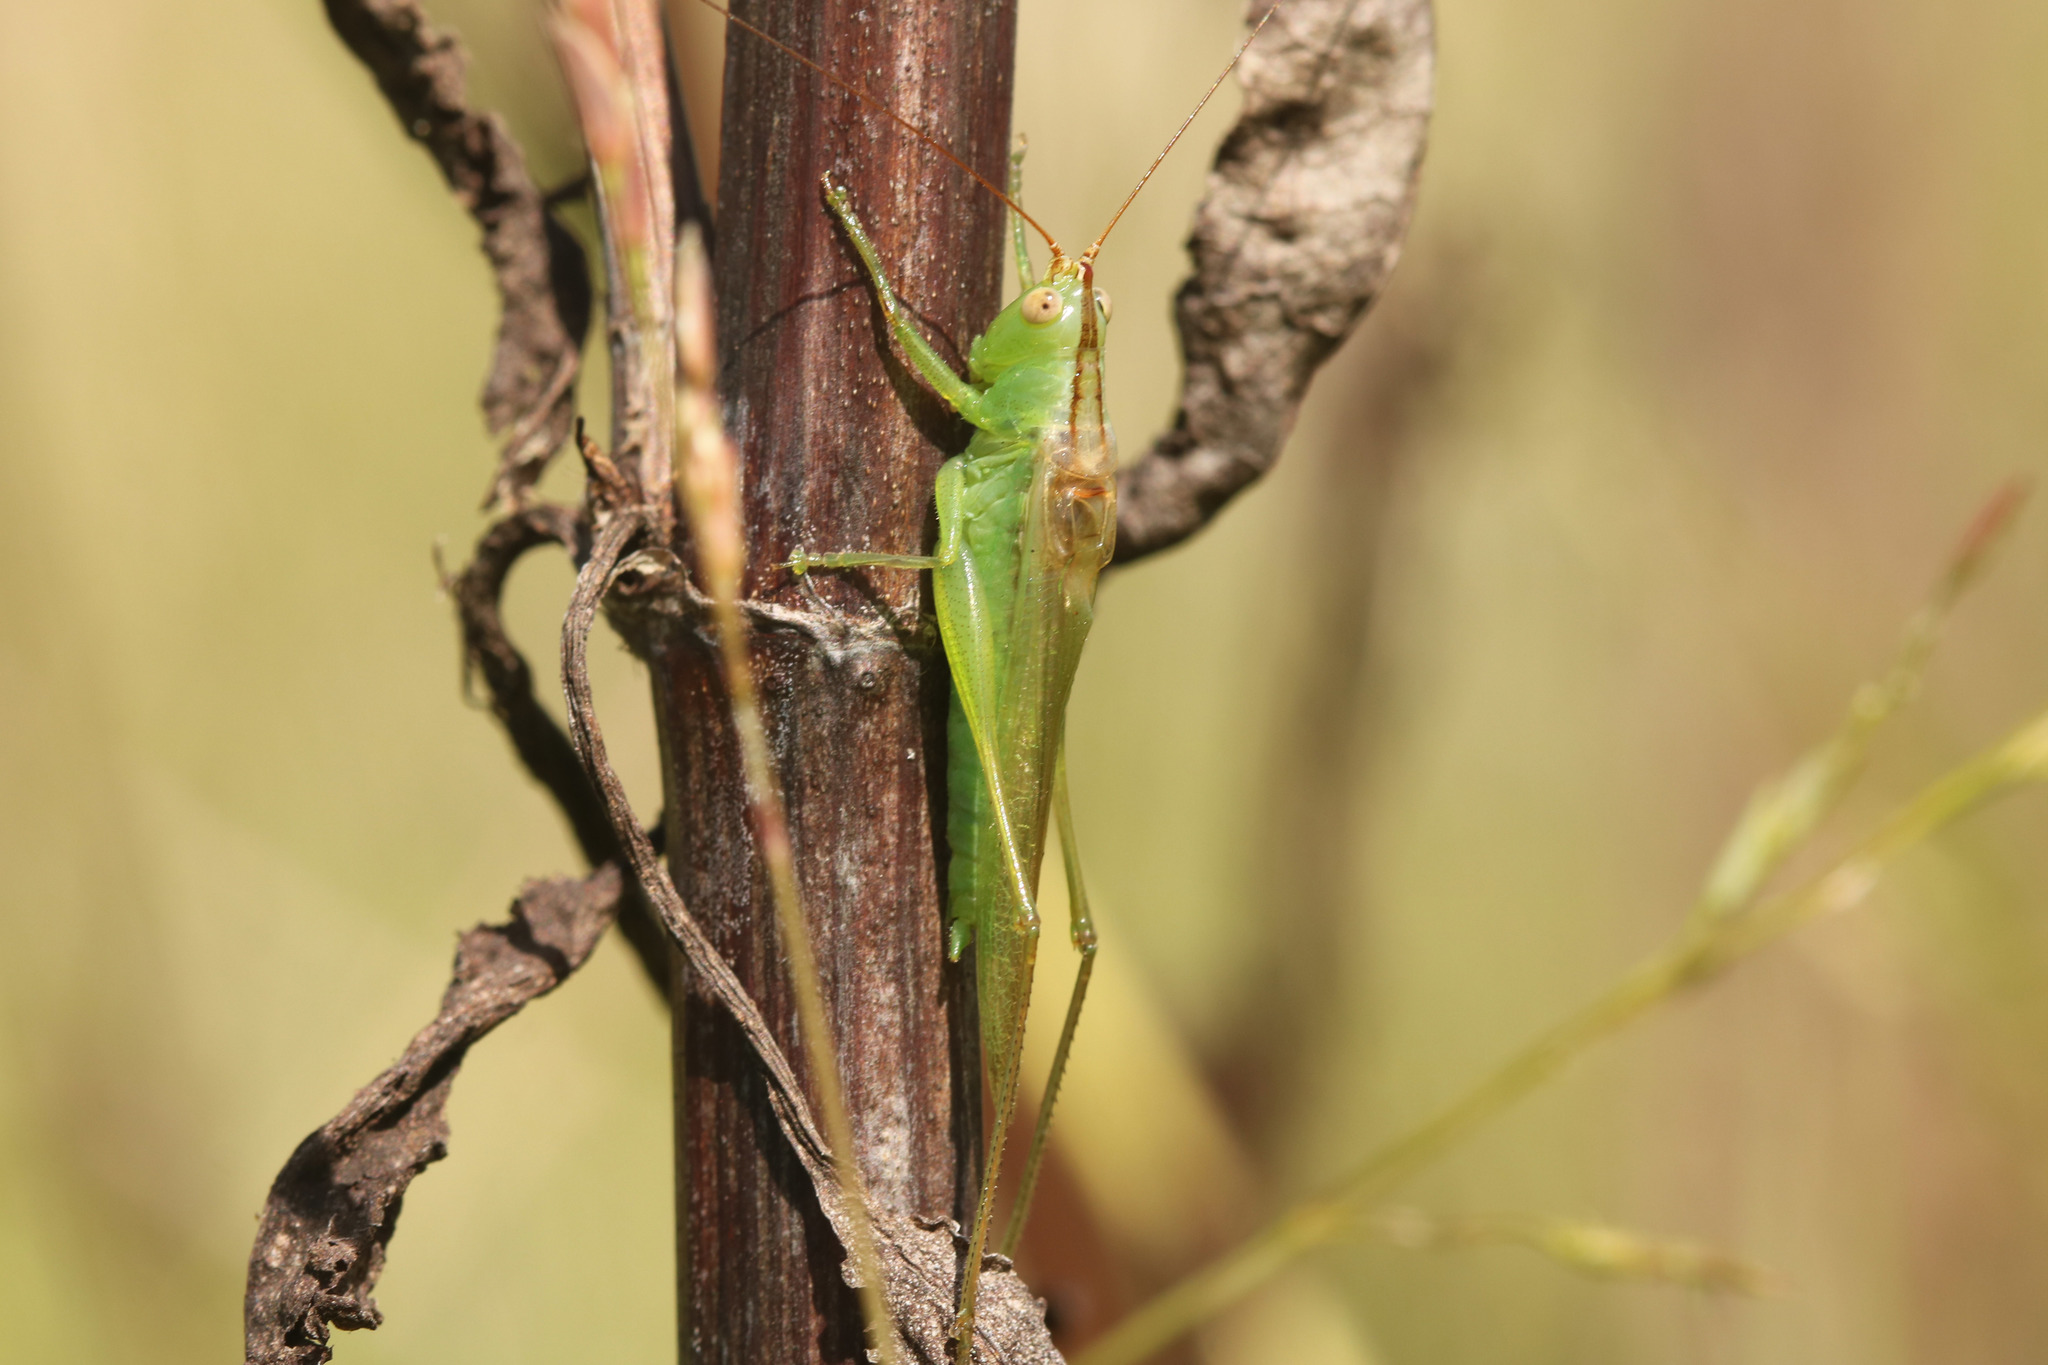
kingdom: Animalia
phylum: Arthropoda
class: Insecta
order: Orthoptera
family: Tettigoniidae
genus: Conocephalus
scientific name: Conocephalus longipes
